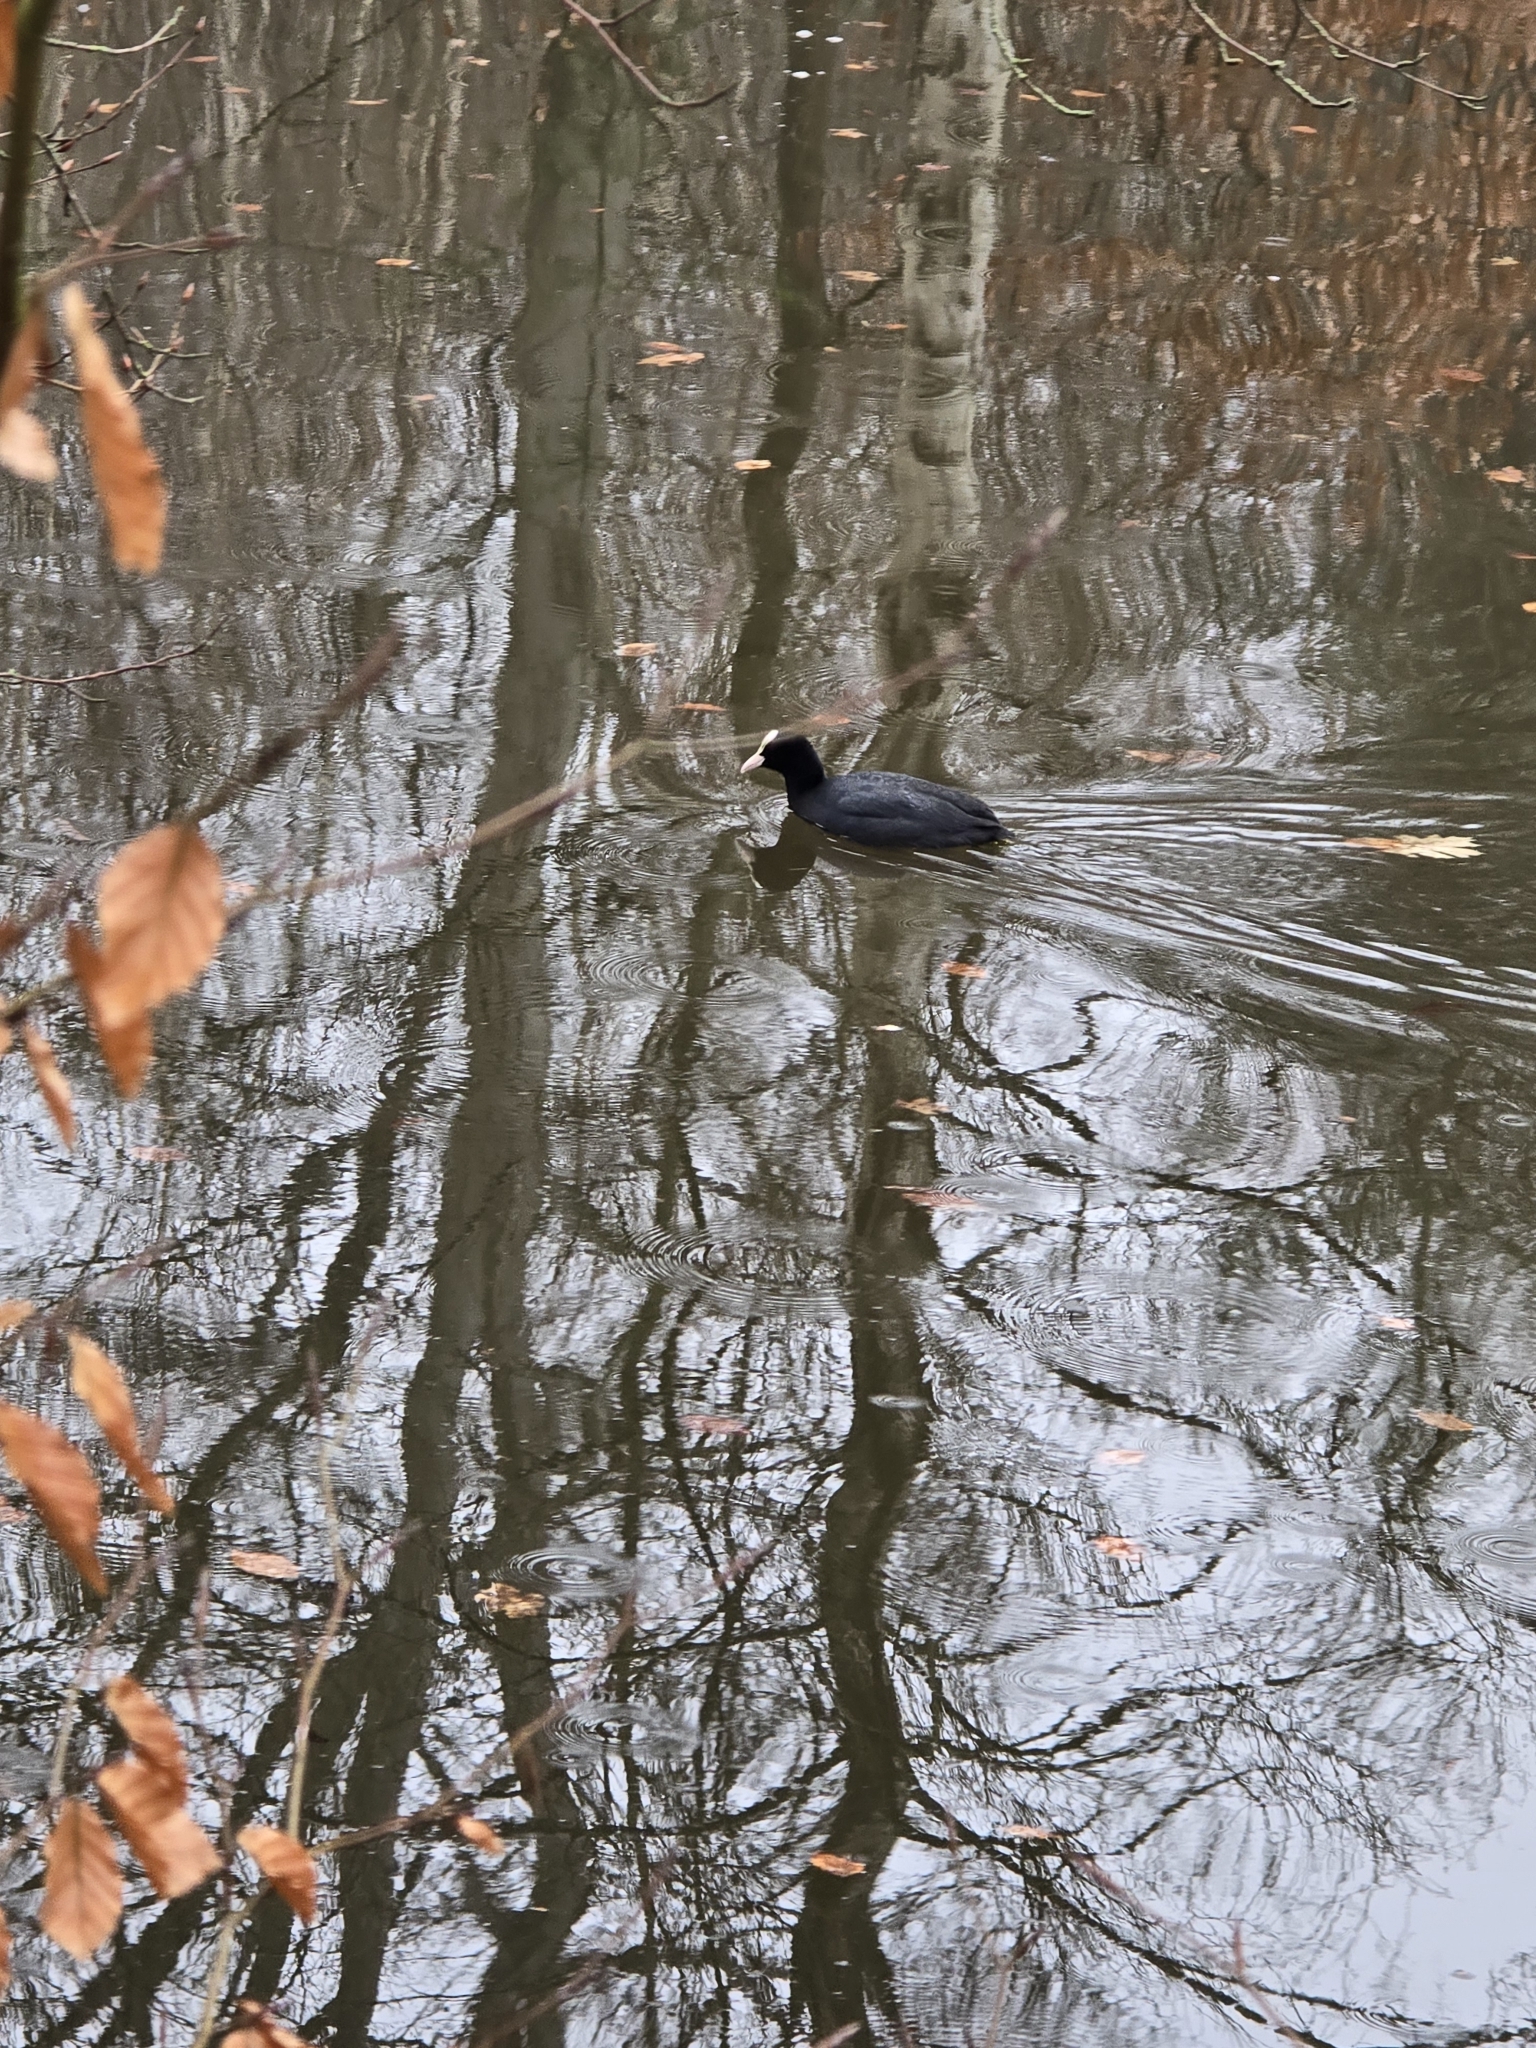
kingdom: Animalia
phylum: Chordata
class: Aves
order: Gruiformes
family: Rallidae
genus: Fulica
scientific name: Fulica atra
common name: Eurasian coot
